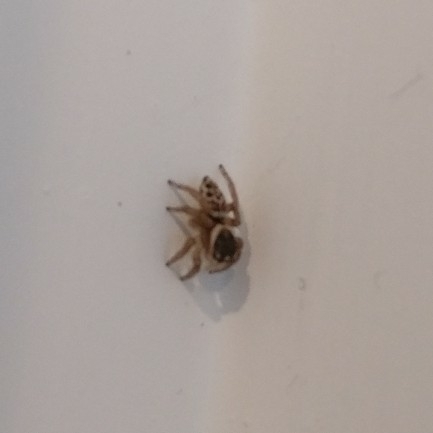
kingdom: Animalia
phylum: Arthropoda
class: Arachnida
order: Araneae
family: Salticidae
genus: Maratus
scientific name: Maratus griseus
